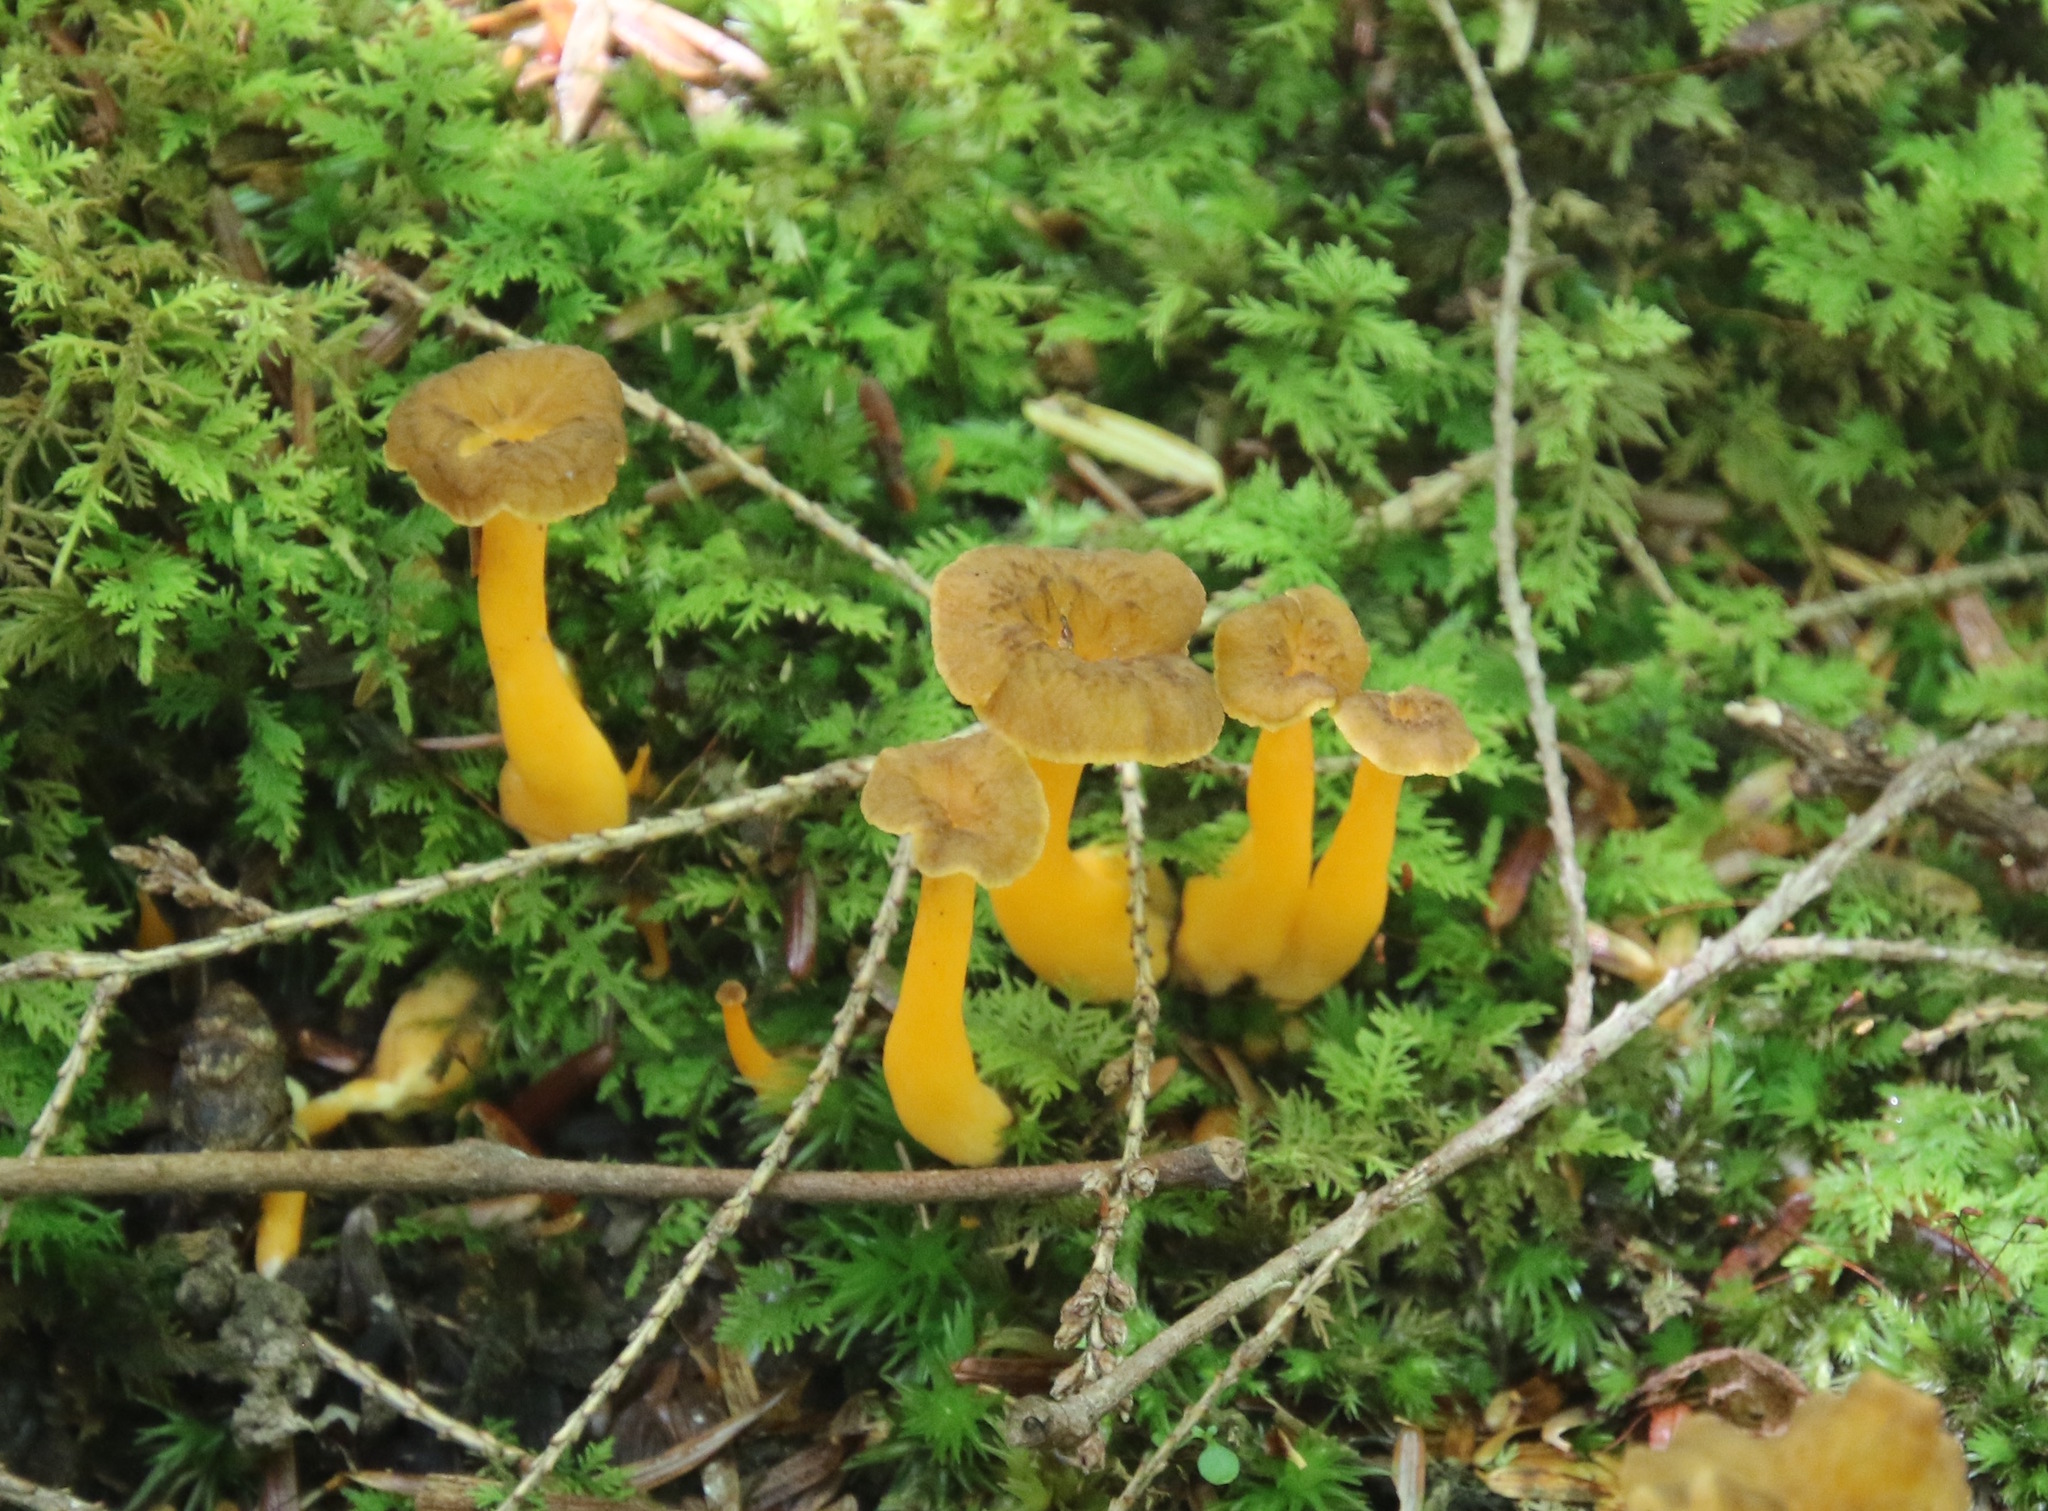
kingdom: Fungi
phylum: Basidiomycota
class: Agaricomycetes
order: Cantharellales
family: Hydnaceae
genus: Craterellus
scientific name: Craterellus tubaeformis
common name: Yellowfoot
